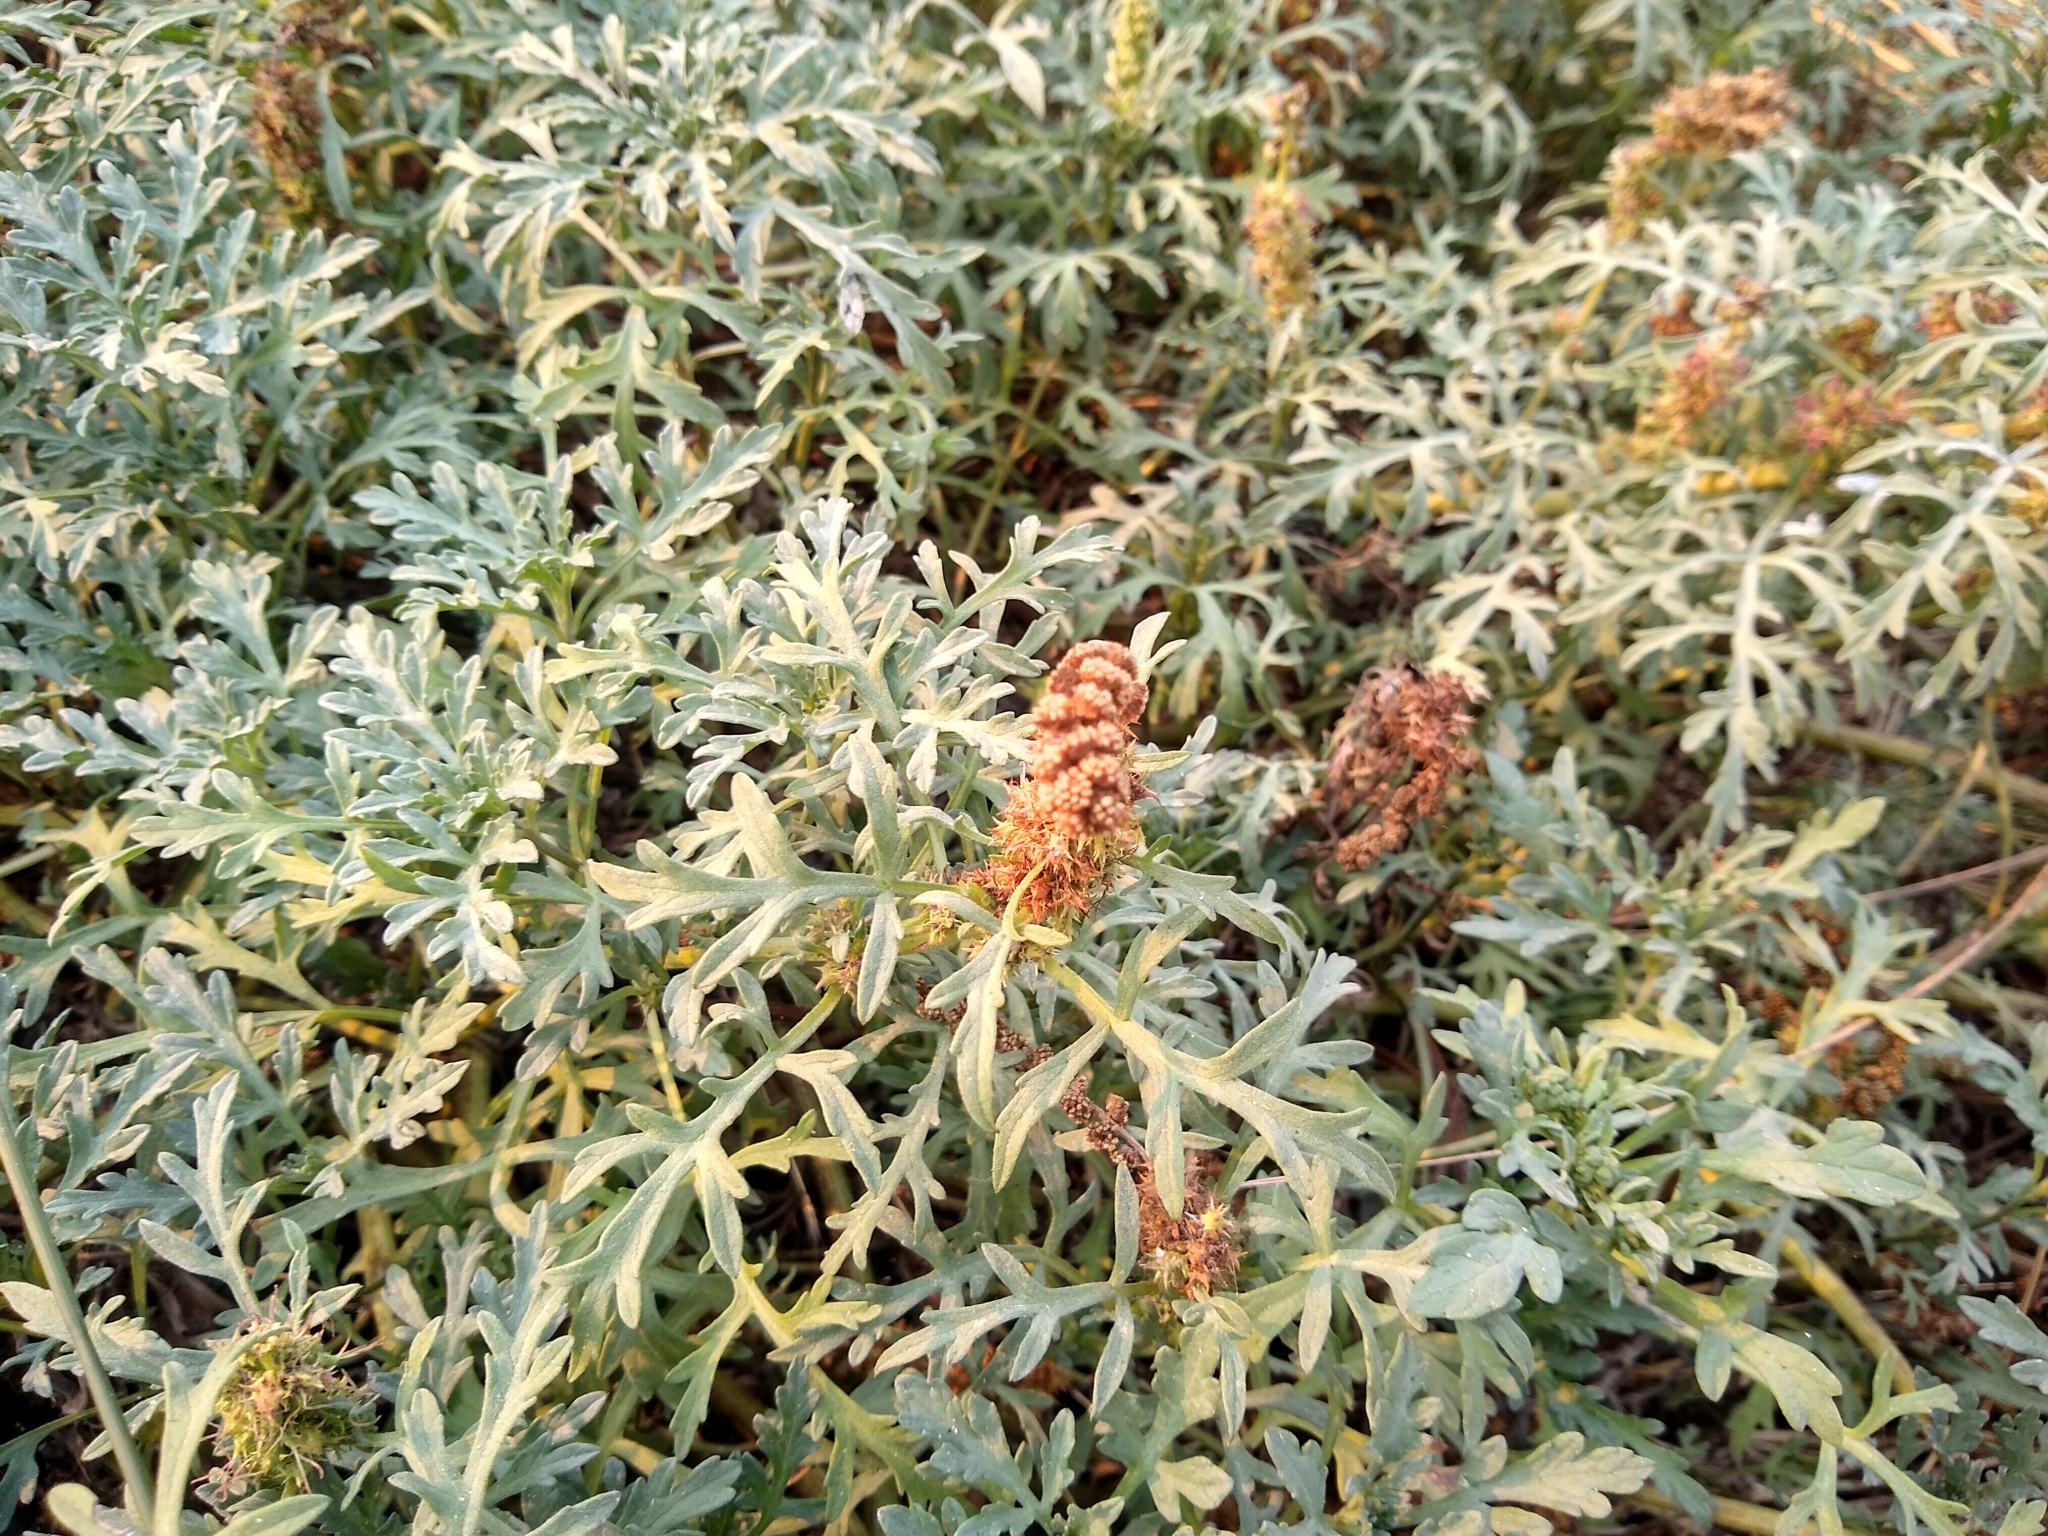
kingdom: Plantae
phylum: Tracheophyta
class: Magnoliopsida
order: Asterales
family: Asteraceae
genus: Ambrosia
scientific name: Ambrosia chamissonis
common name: Beachbur
